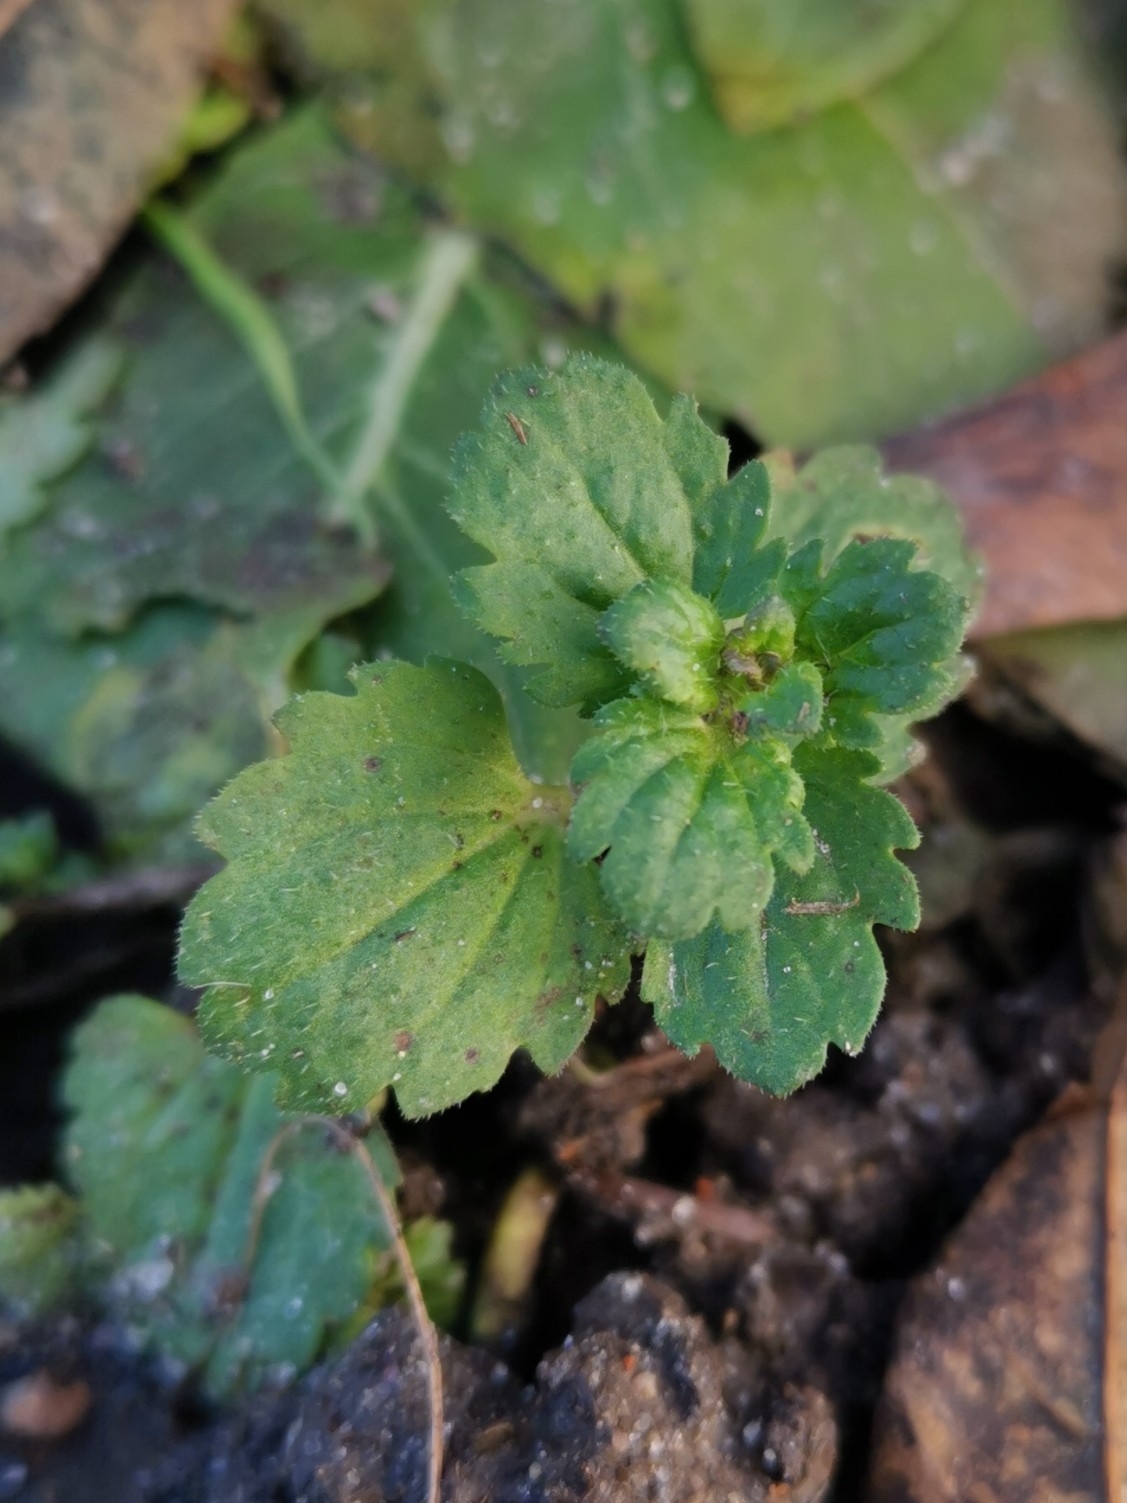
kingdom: Plantae
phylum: Tracheophyta
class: Magnoliopsida
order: Lamiales
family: Plantaginaceae
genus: Veronica
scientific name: Veronica persica
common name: Common field-speedwell
